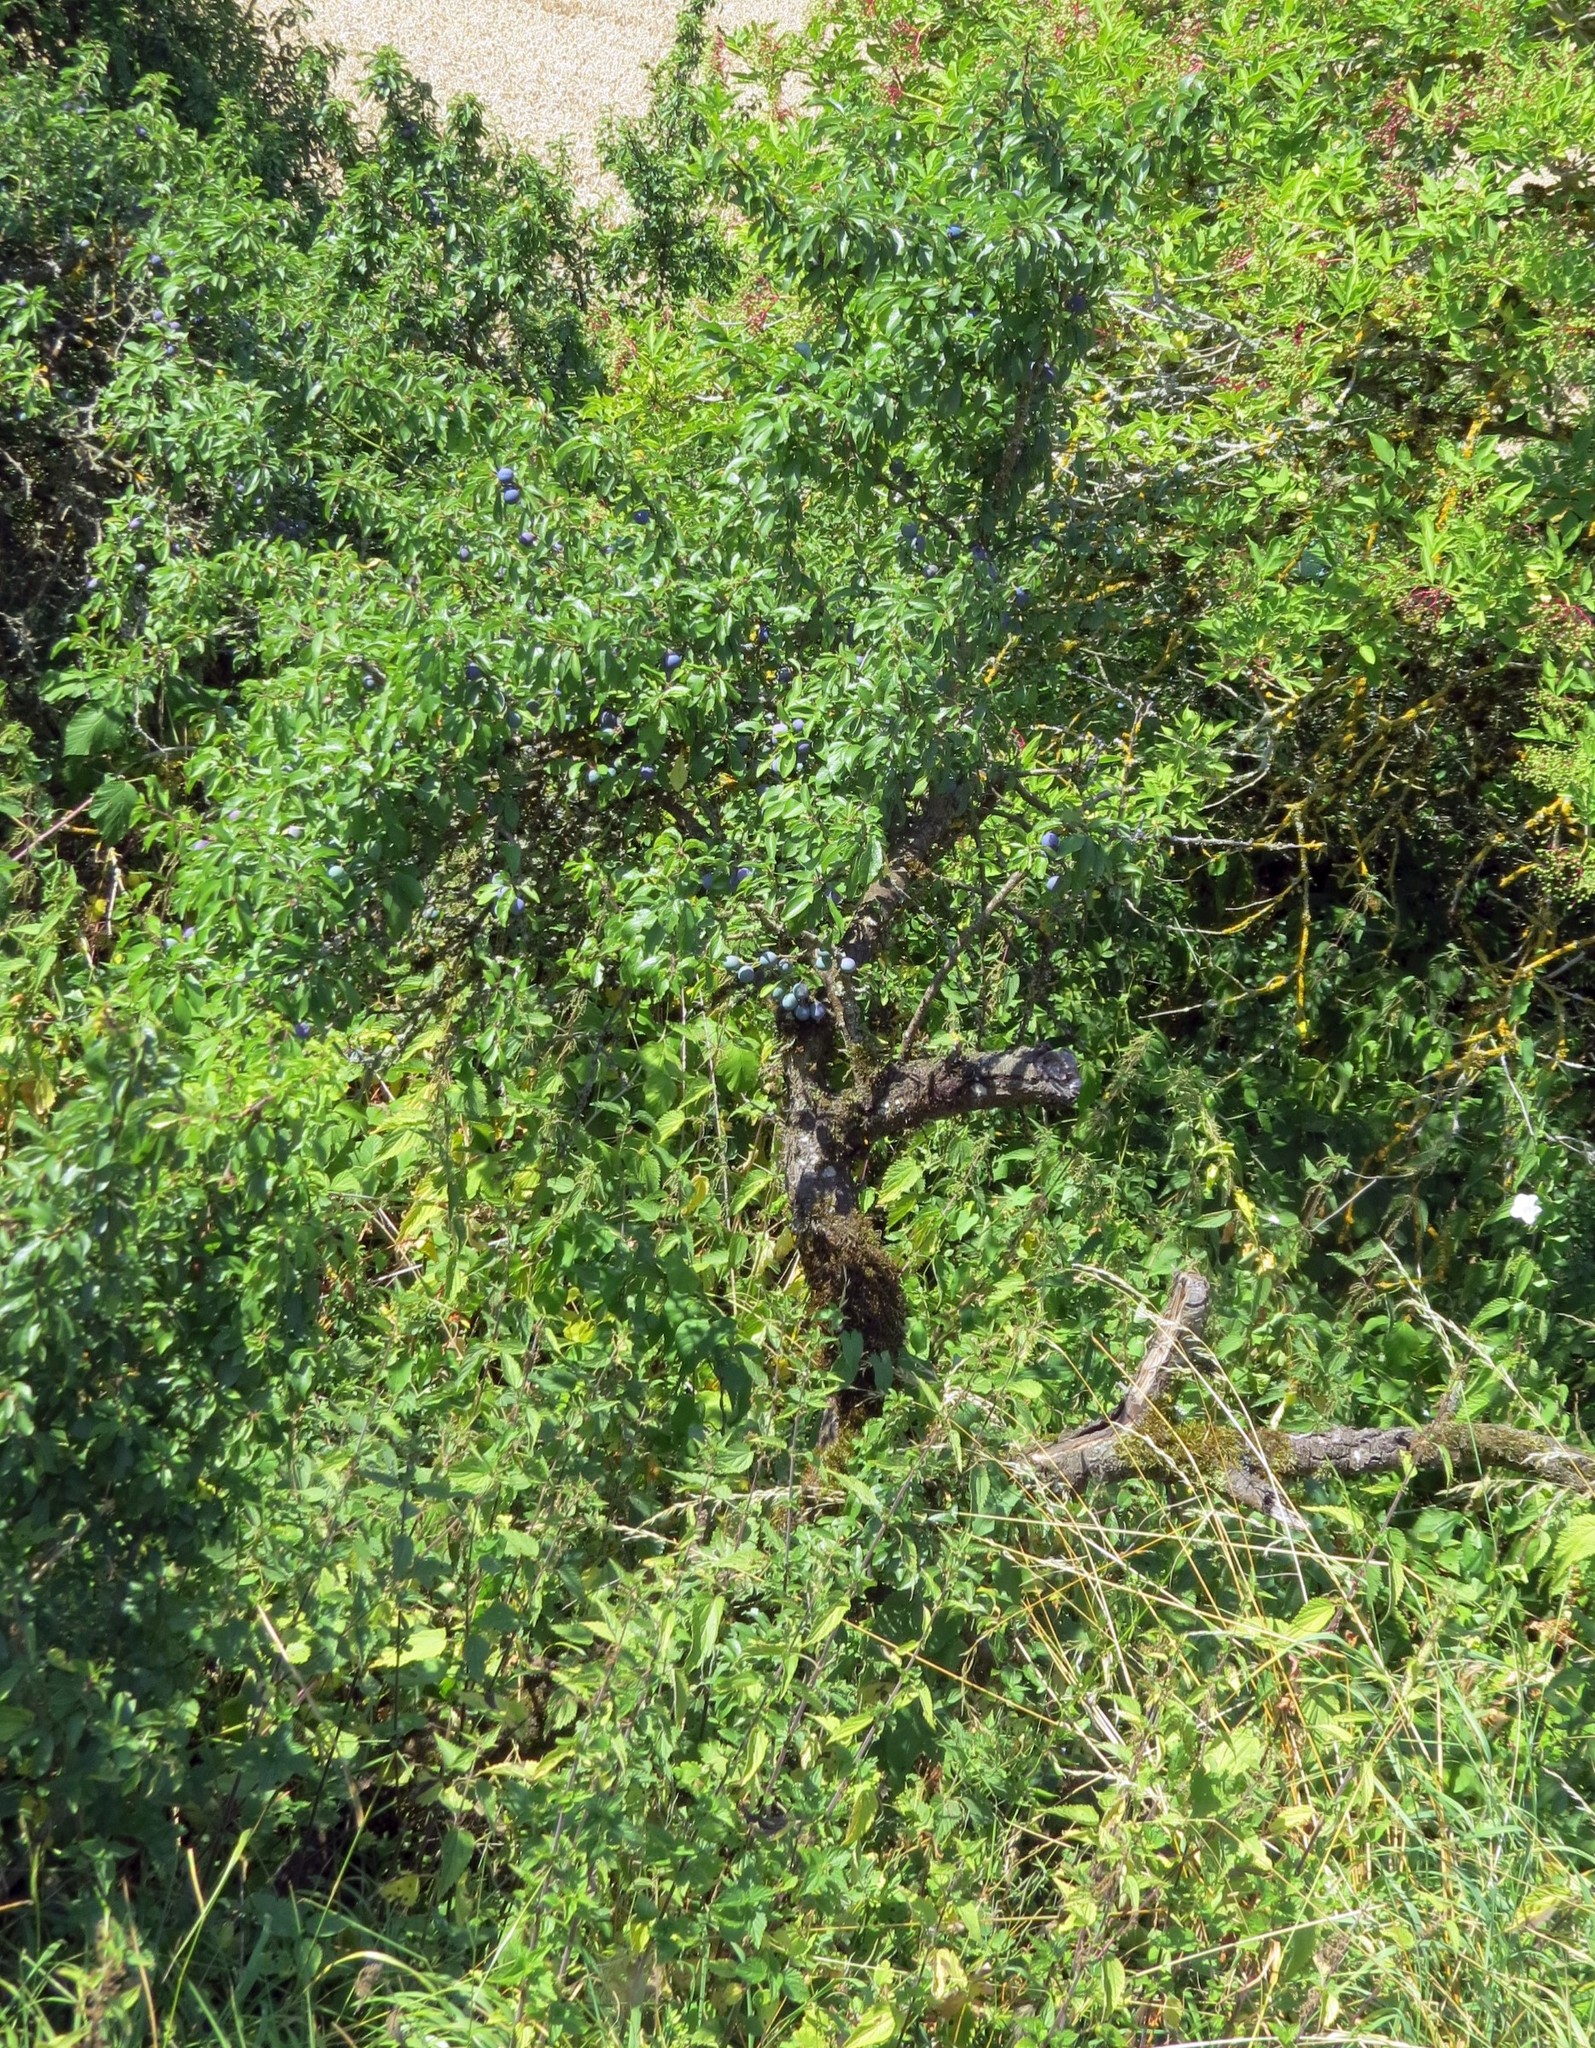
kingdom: Plantae
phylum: Tracheophyta
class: Magnoliopsida
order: Rosales
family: Rosaceae
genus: Prunus
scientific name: Prunus spinosa
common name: Blackthorn
